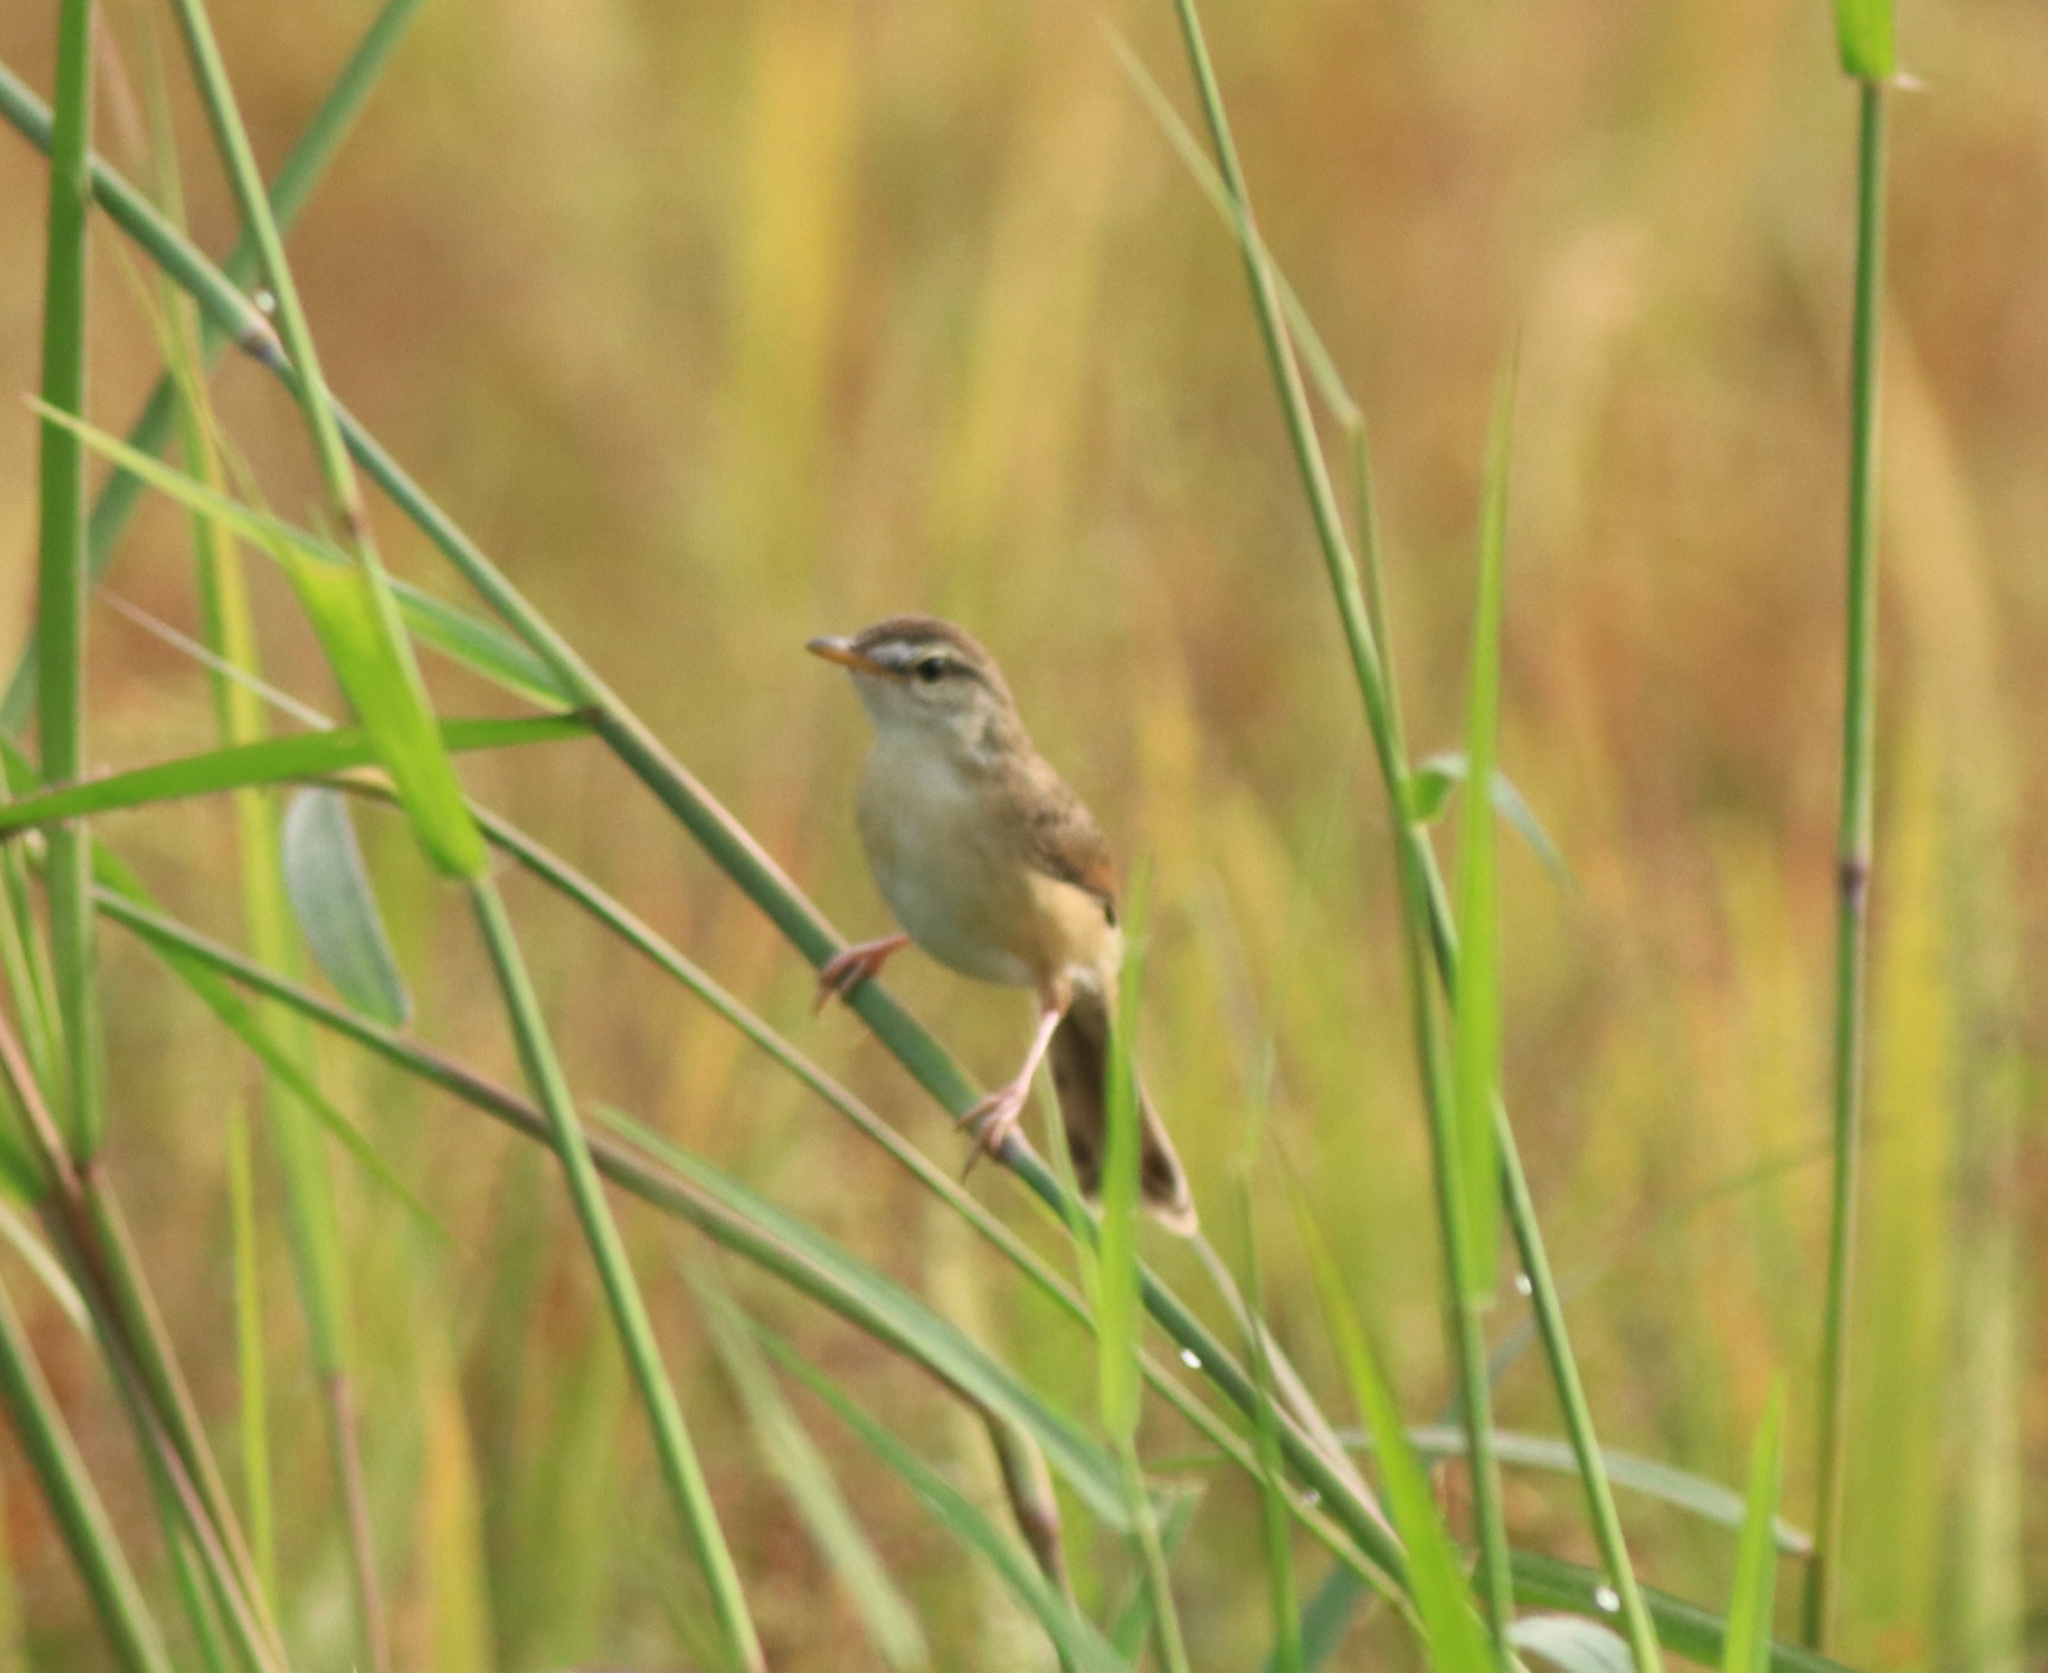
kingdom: Animalia
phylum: Chordata
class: Aves
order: Passeriformes
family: Cisticolidae
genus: Prinia
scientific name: Prinia inornata
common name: Plain prinia
